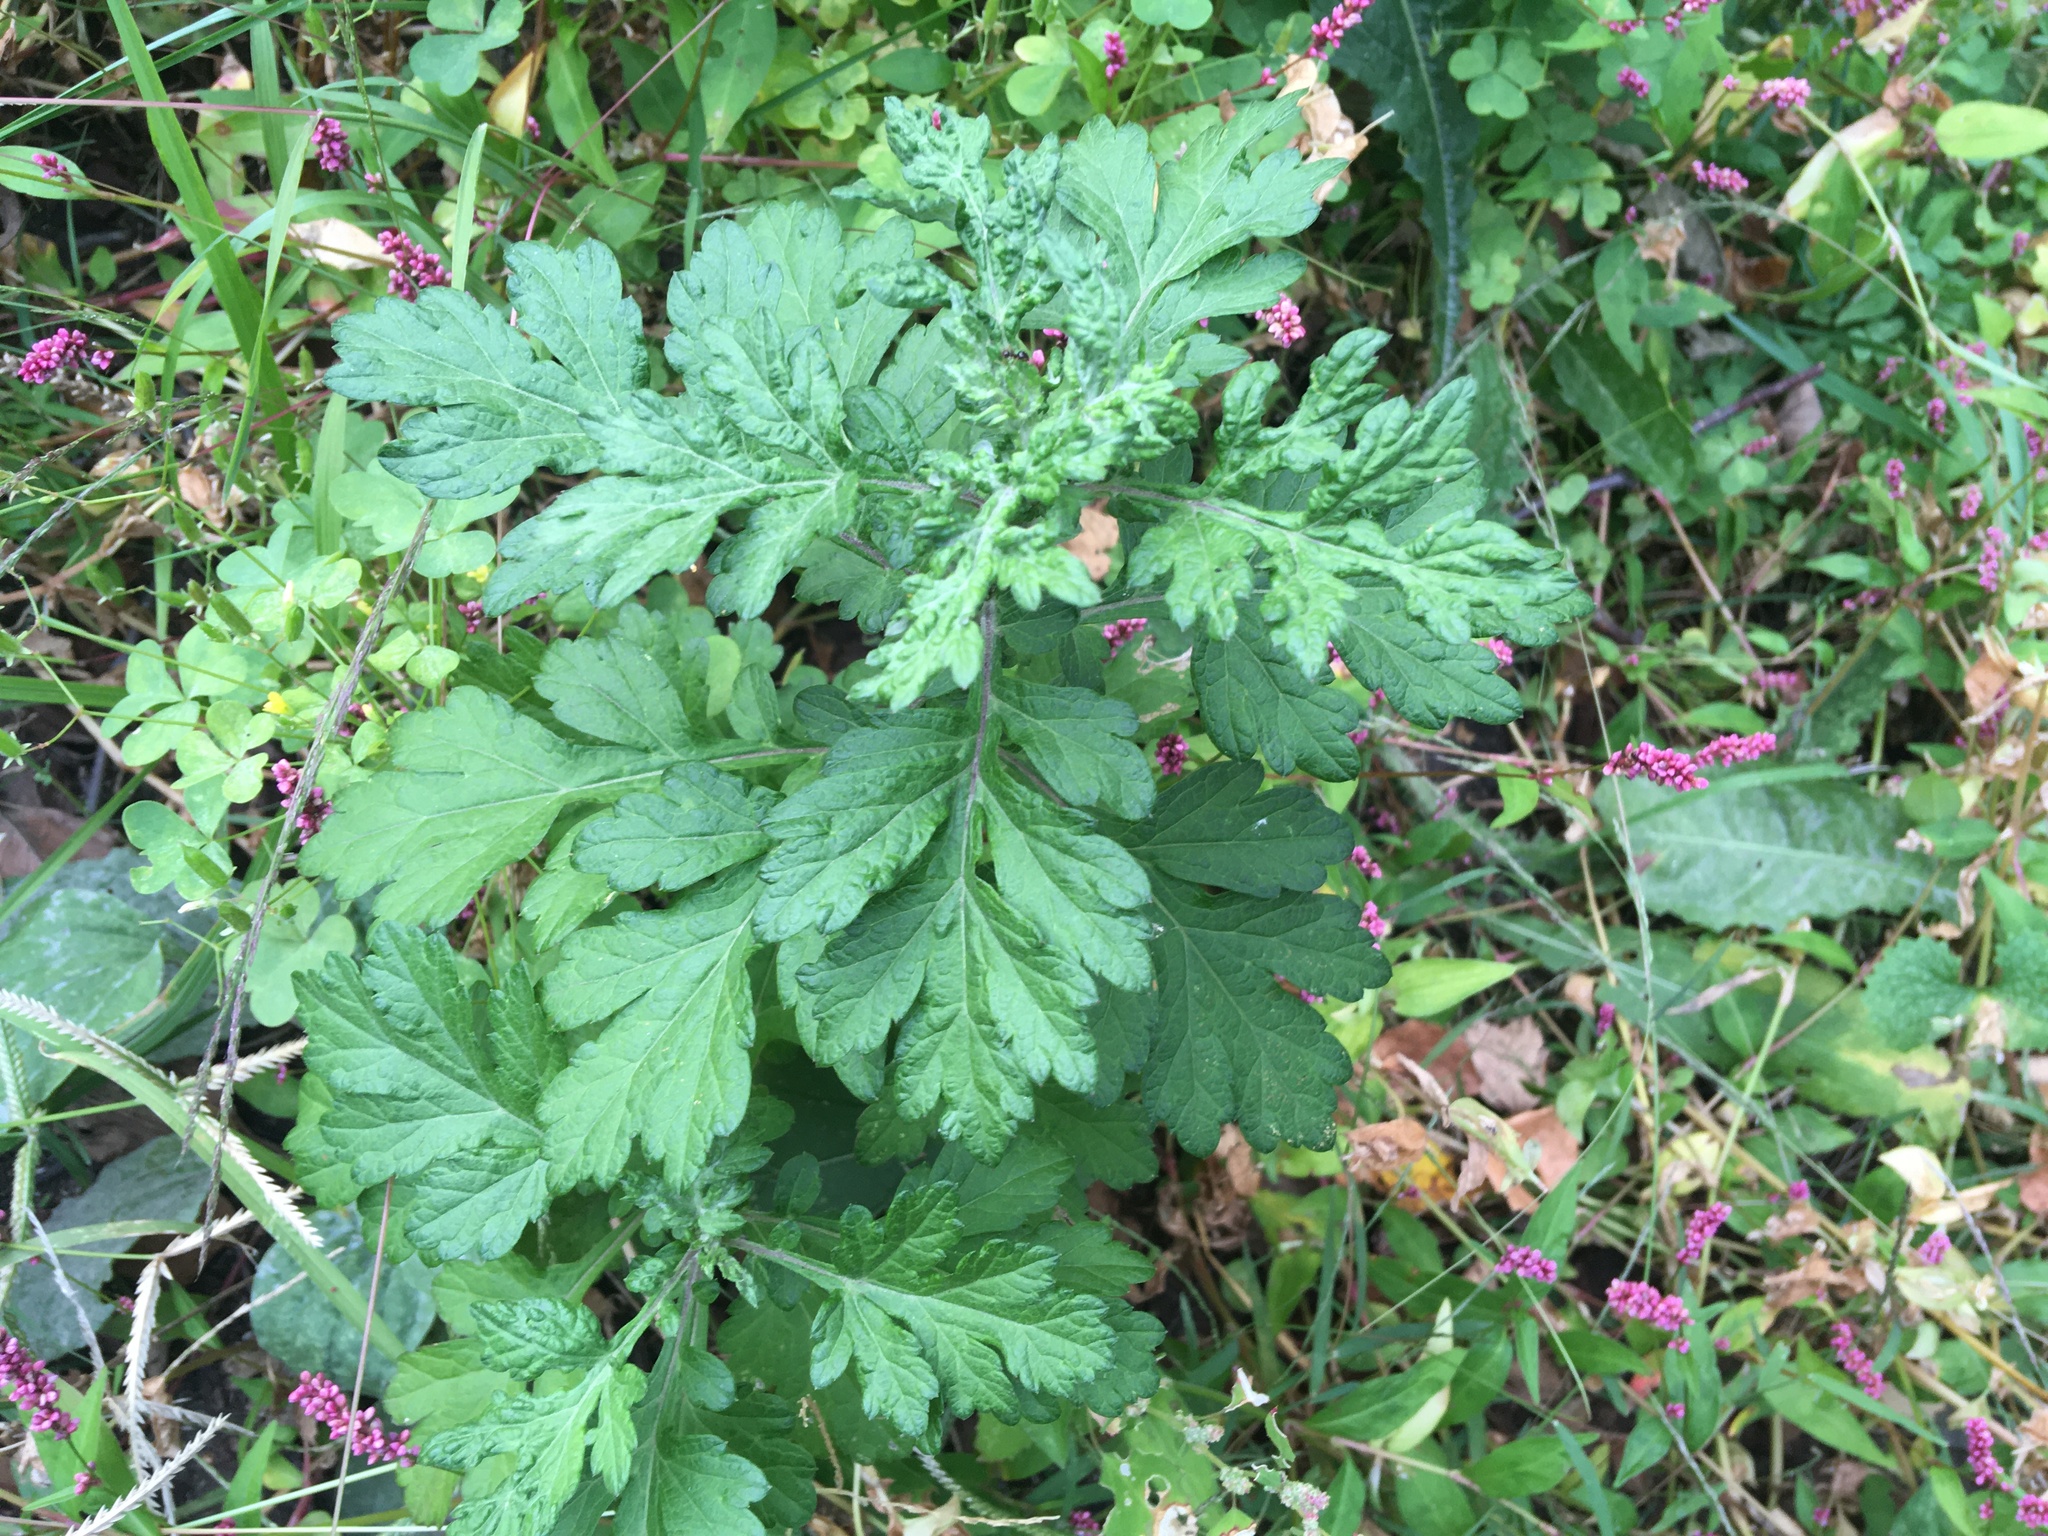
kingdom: Plantae
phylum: Tracheophyta
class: Magnoliopsida
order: Asterales
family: Asteraceae
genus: Artemisia
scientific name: Artemisia vulgaris
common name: Mugwort
